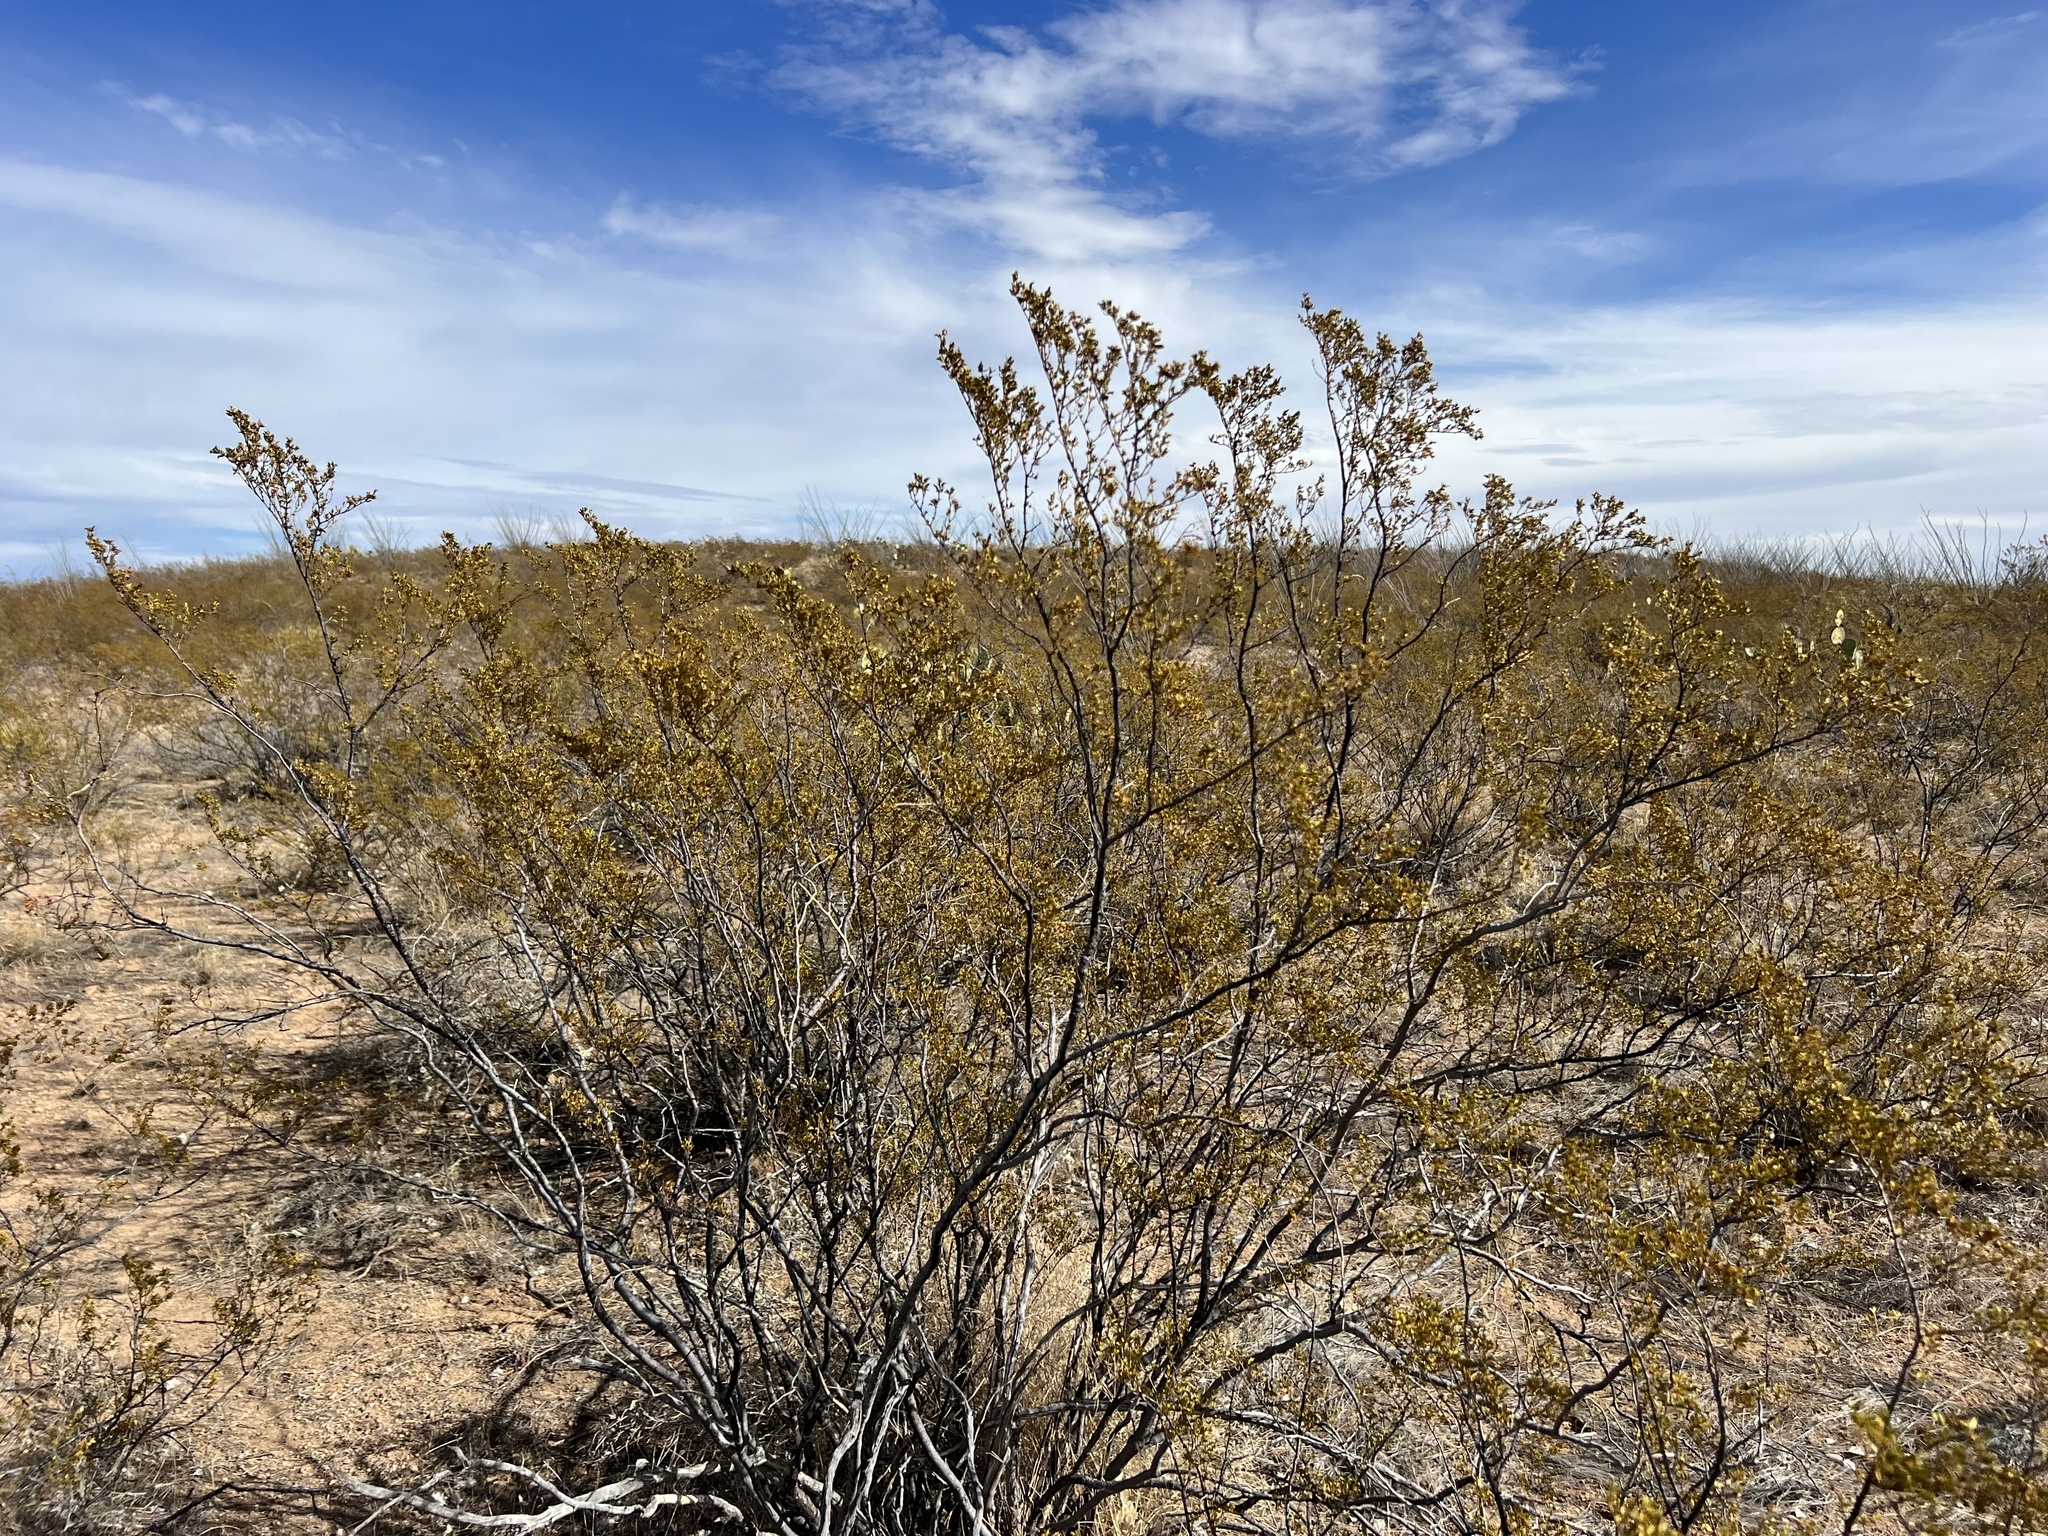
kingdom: Plantae
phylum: Tracheophyta
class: Magnoliopsida
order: Zygophyllales
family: Zygophyllaceae
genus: Larrea
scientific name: Larrea tridentata
